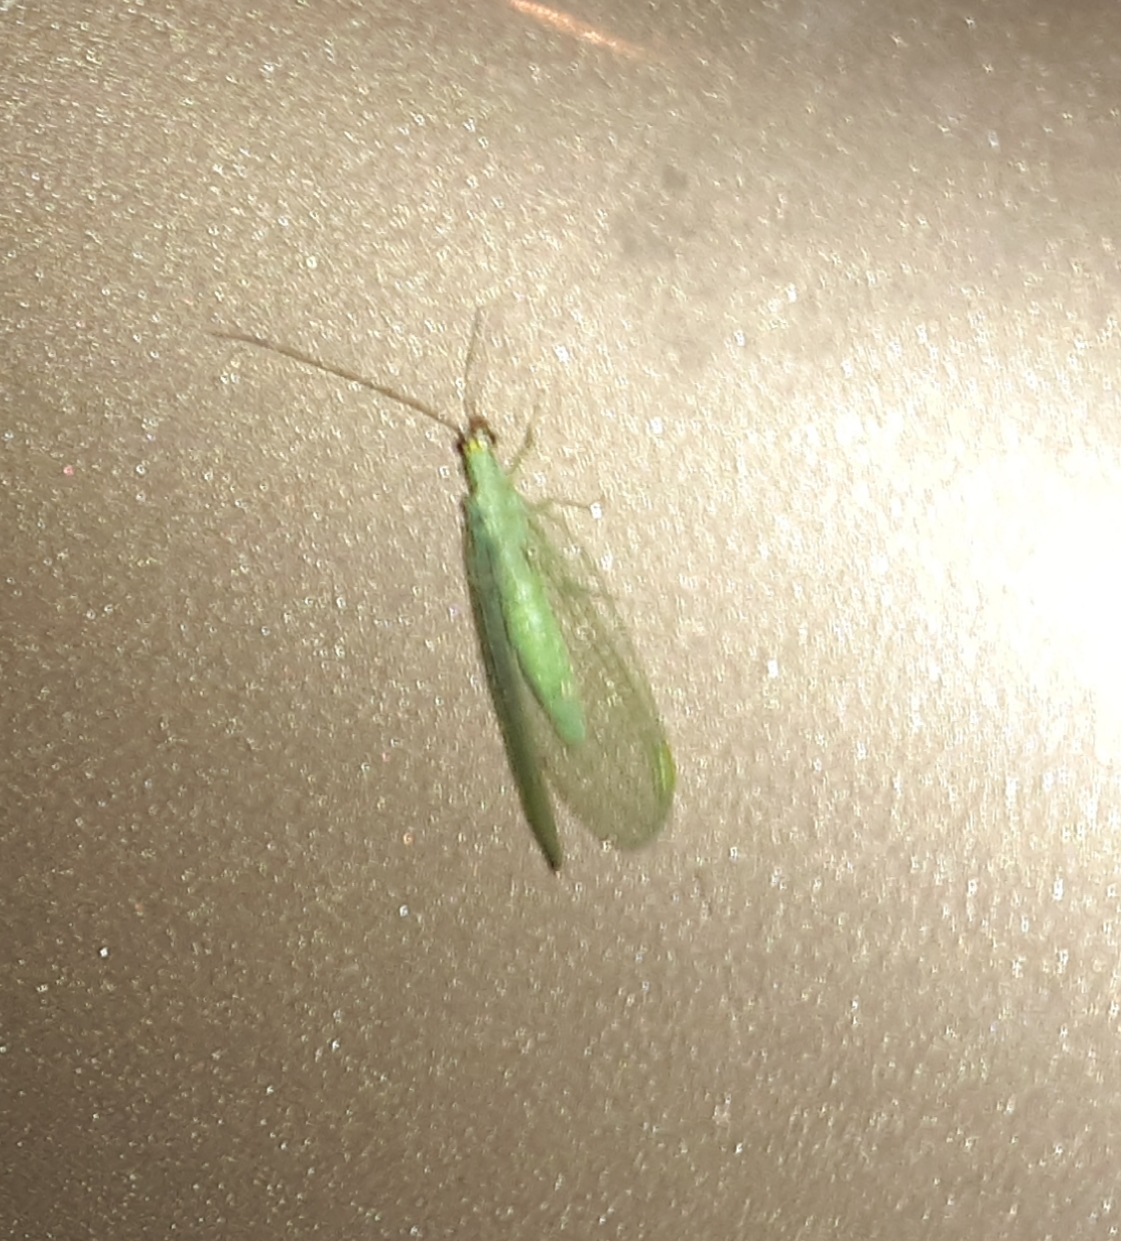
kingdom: Animalia
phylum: Arthropoda
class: Insecta
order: Neuroptera
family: Chrysopidae
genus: Chrysopa
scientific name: Chrysopa oculata
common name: Golden-eyed lacewing
